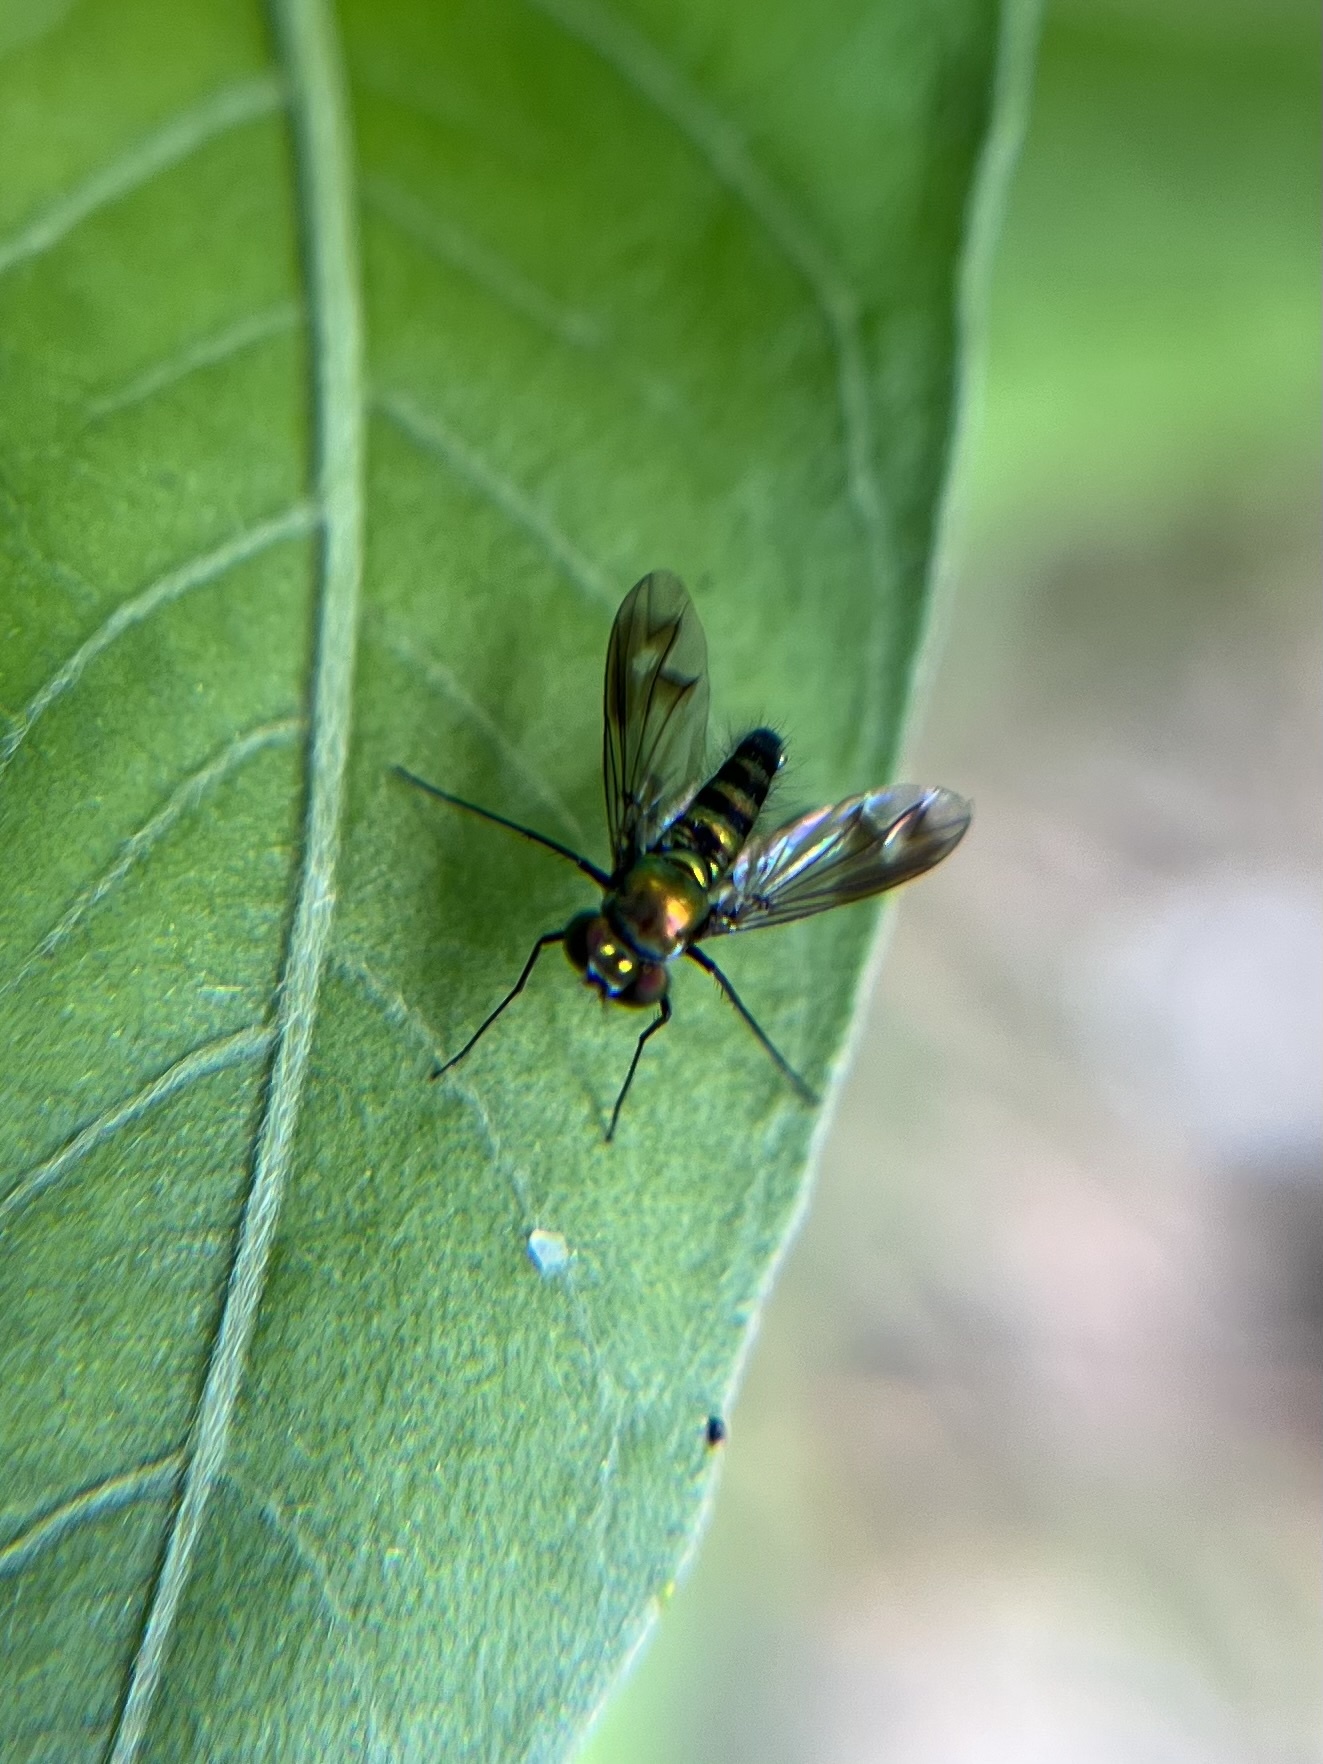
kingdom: Animalia
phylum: Arthropoda
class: Insecta
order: Diptera
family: Dolichopodidae
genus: Condylostylus
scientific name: Condylostylus patibulatus
